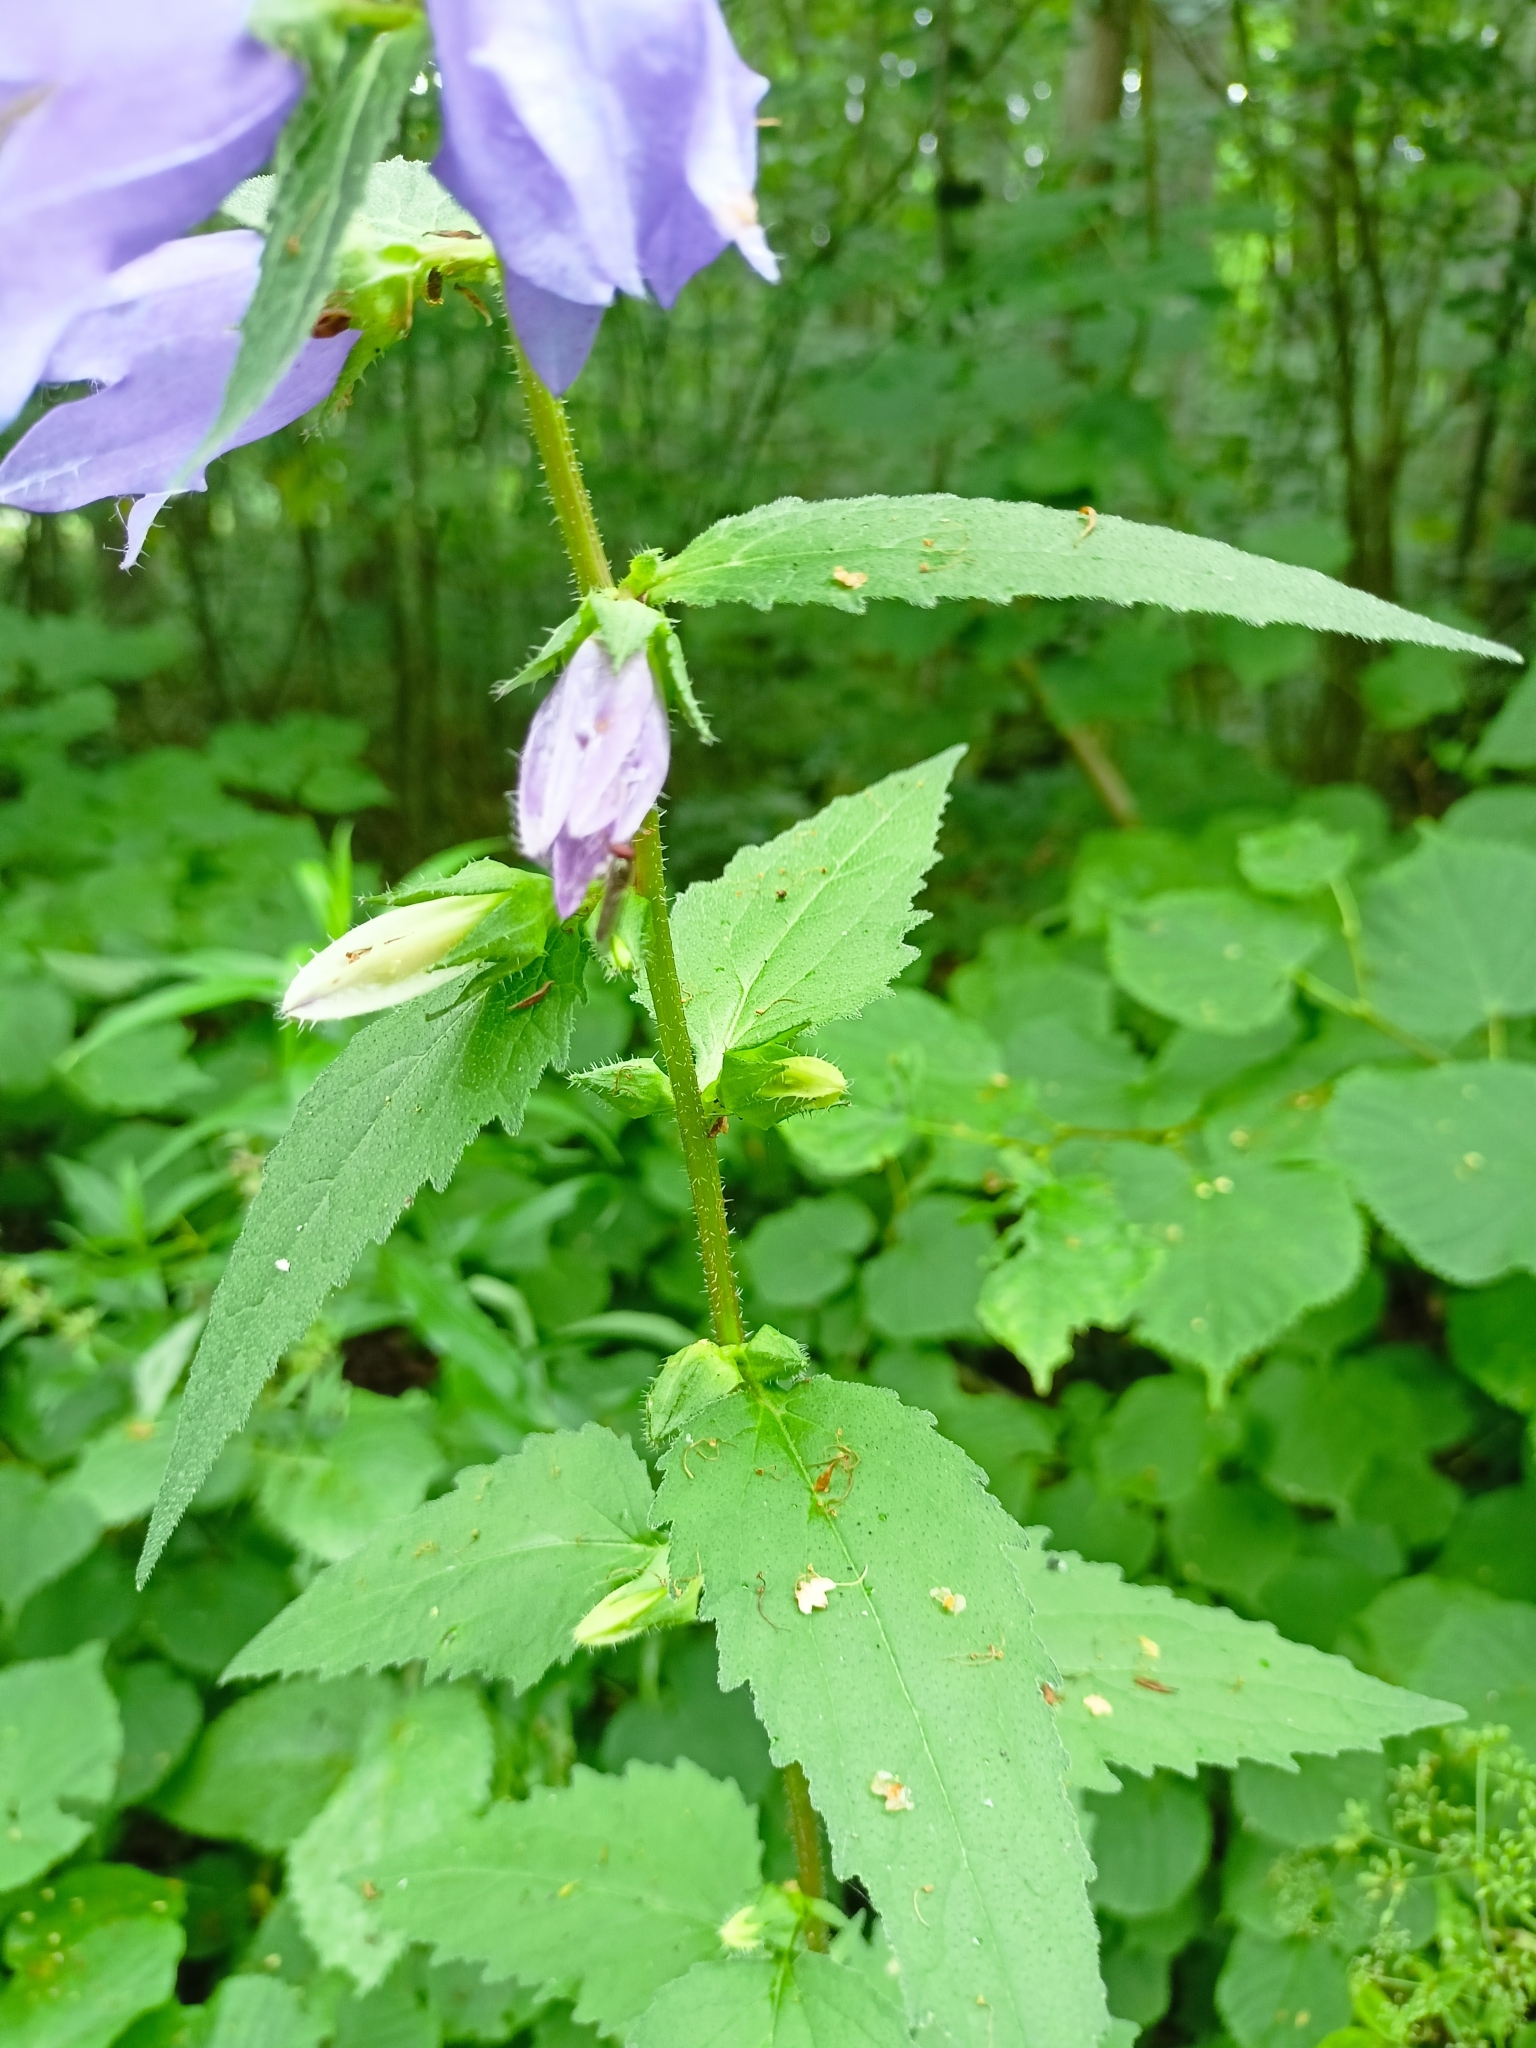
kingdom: Plantae
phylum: Tracheophyta
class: Magnoliopsida
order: Asterales
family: Campanulaceae
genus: Campanula
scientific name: Campanula trachelium
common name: Nettle-leaved bellflower
